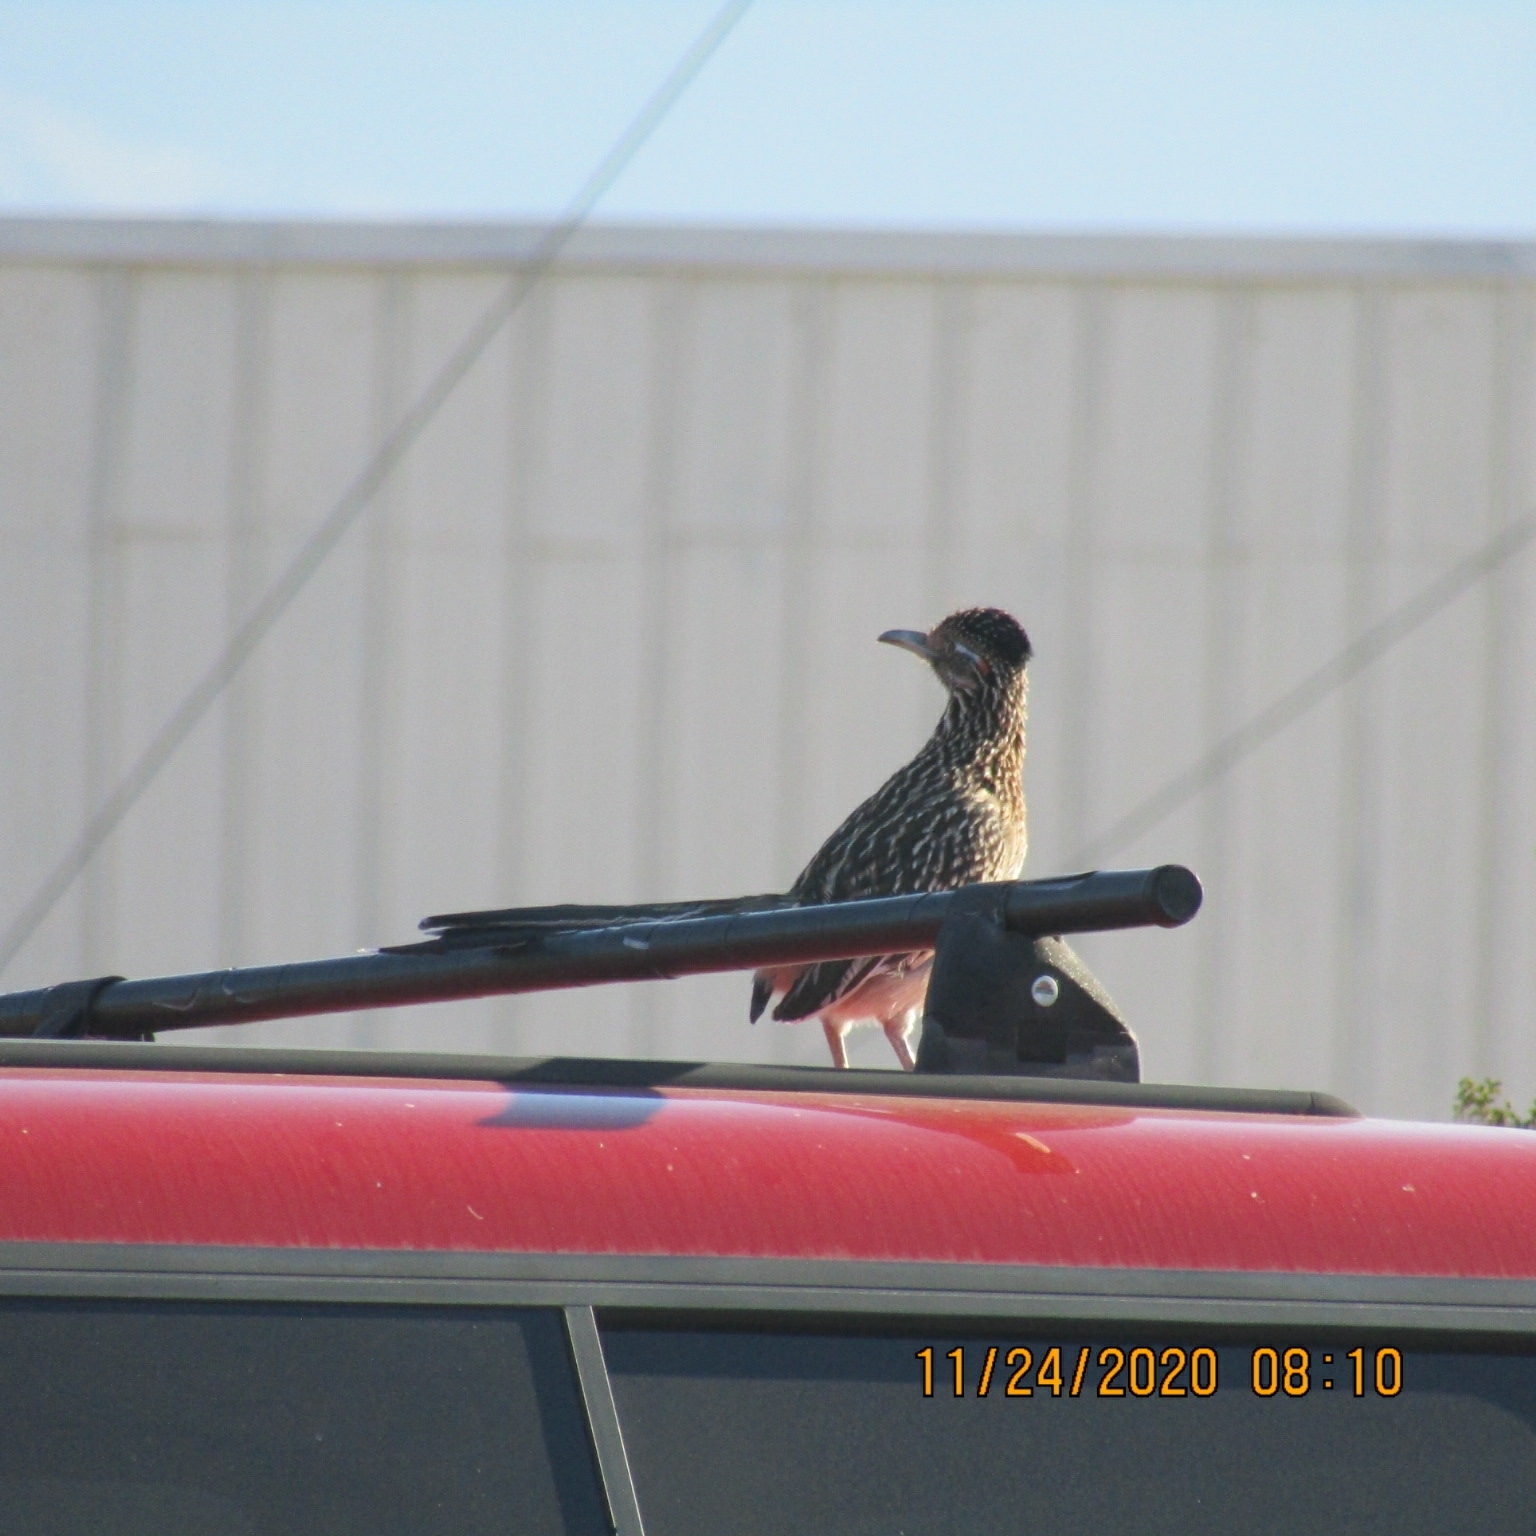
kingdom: Animalia
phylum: Chordata
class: Aves
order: Cuculiformes
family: Cuculidae
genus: Geococcyx
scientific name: Geococcyx californianus
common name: Greater roadrunner
